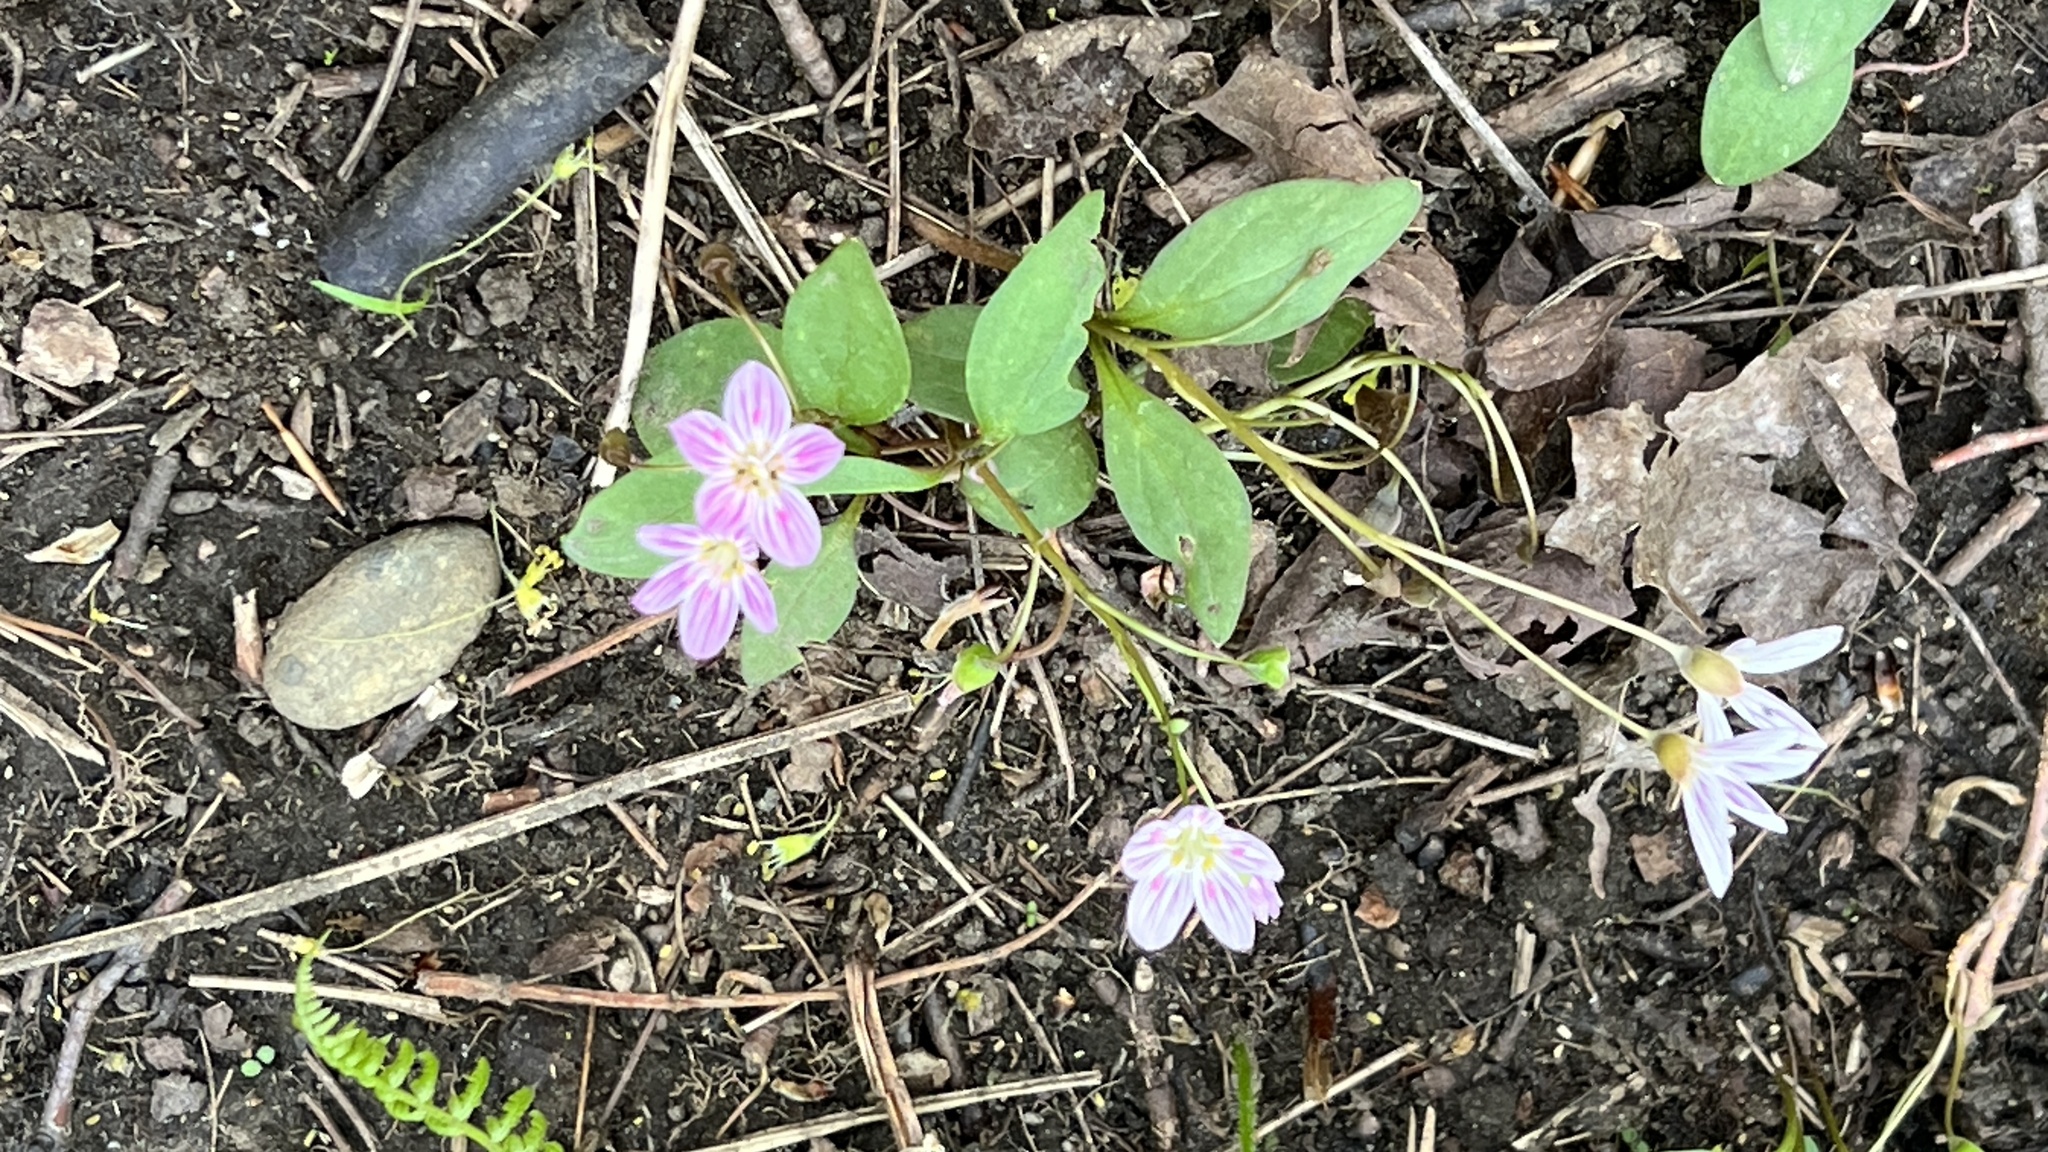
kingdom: Plantae
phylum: Tracheophyta
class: Magnoliopsida
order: Caryophyllales
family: Montiaceae
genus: Claytonia
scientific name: Claytonia caroliniana
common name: Carolina spring beauty
